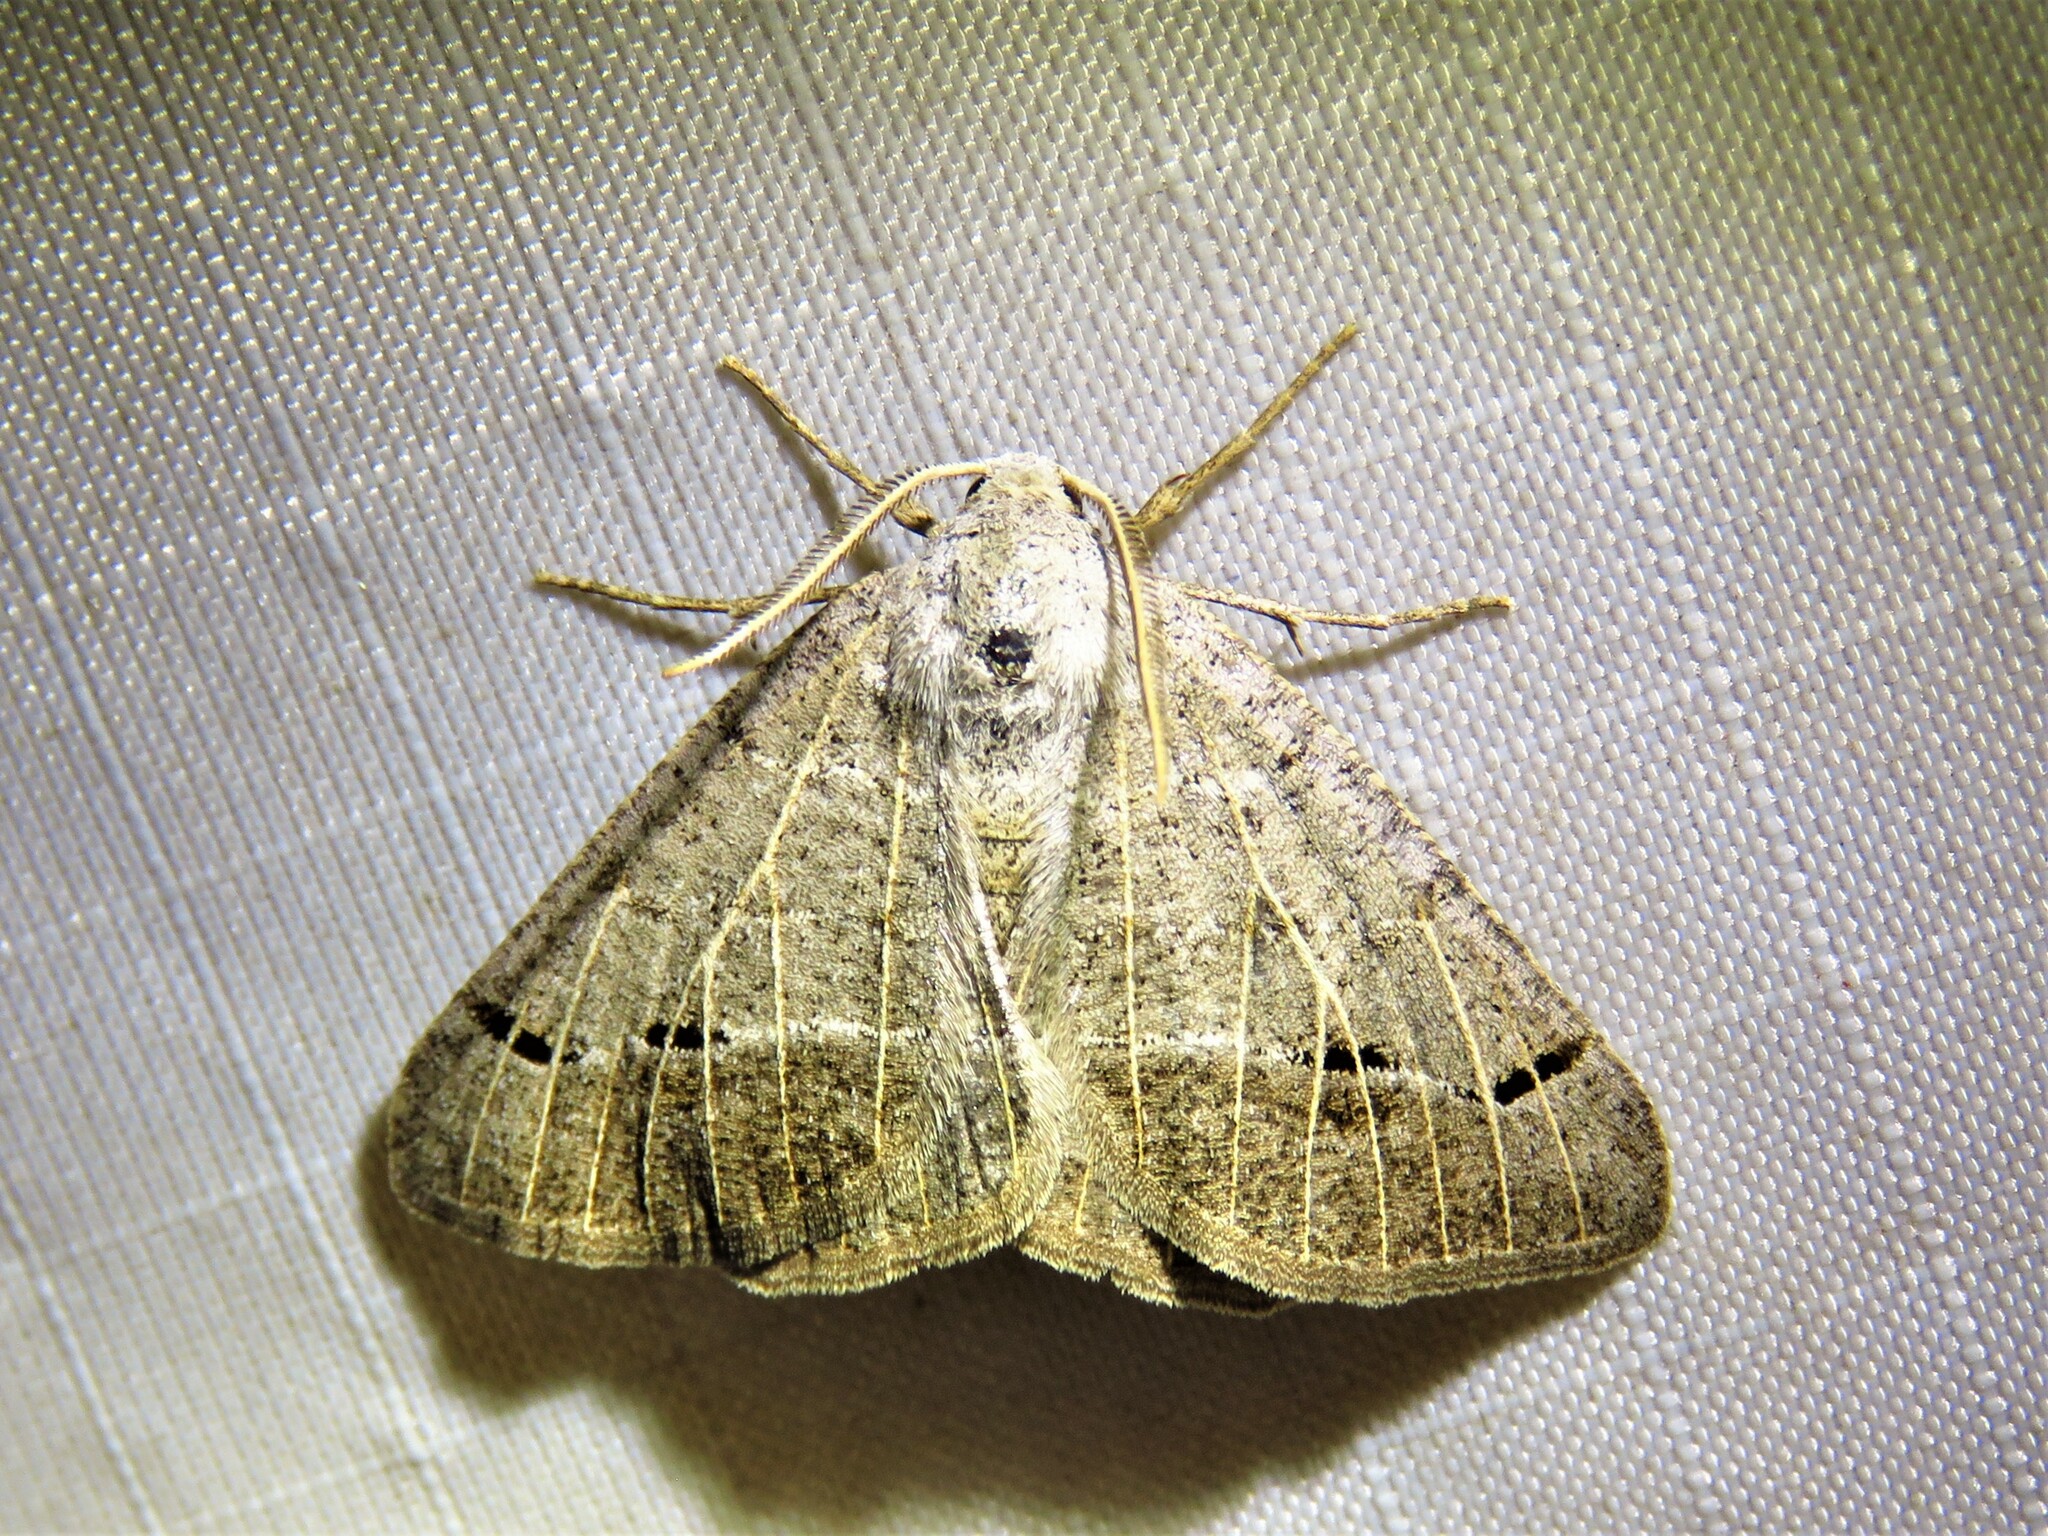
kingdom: Animalia
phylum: Arthropoda
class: Insecta
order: Lepidoptera
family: Geometridae
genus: Isturgia
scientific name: Isturgia dislocaria
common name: Pale-viened enconista
